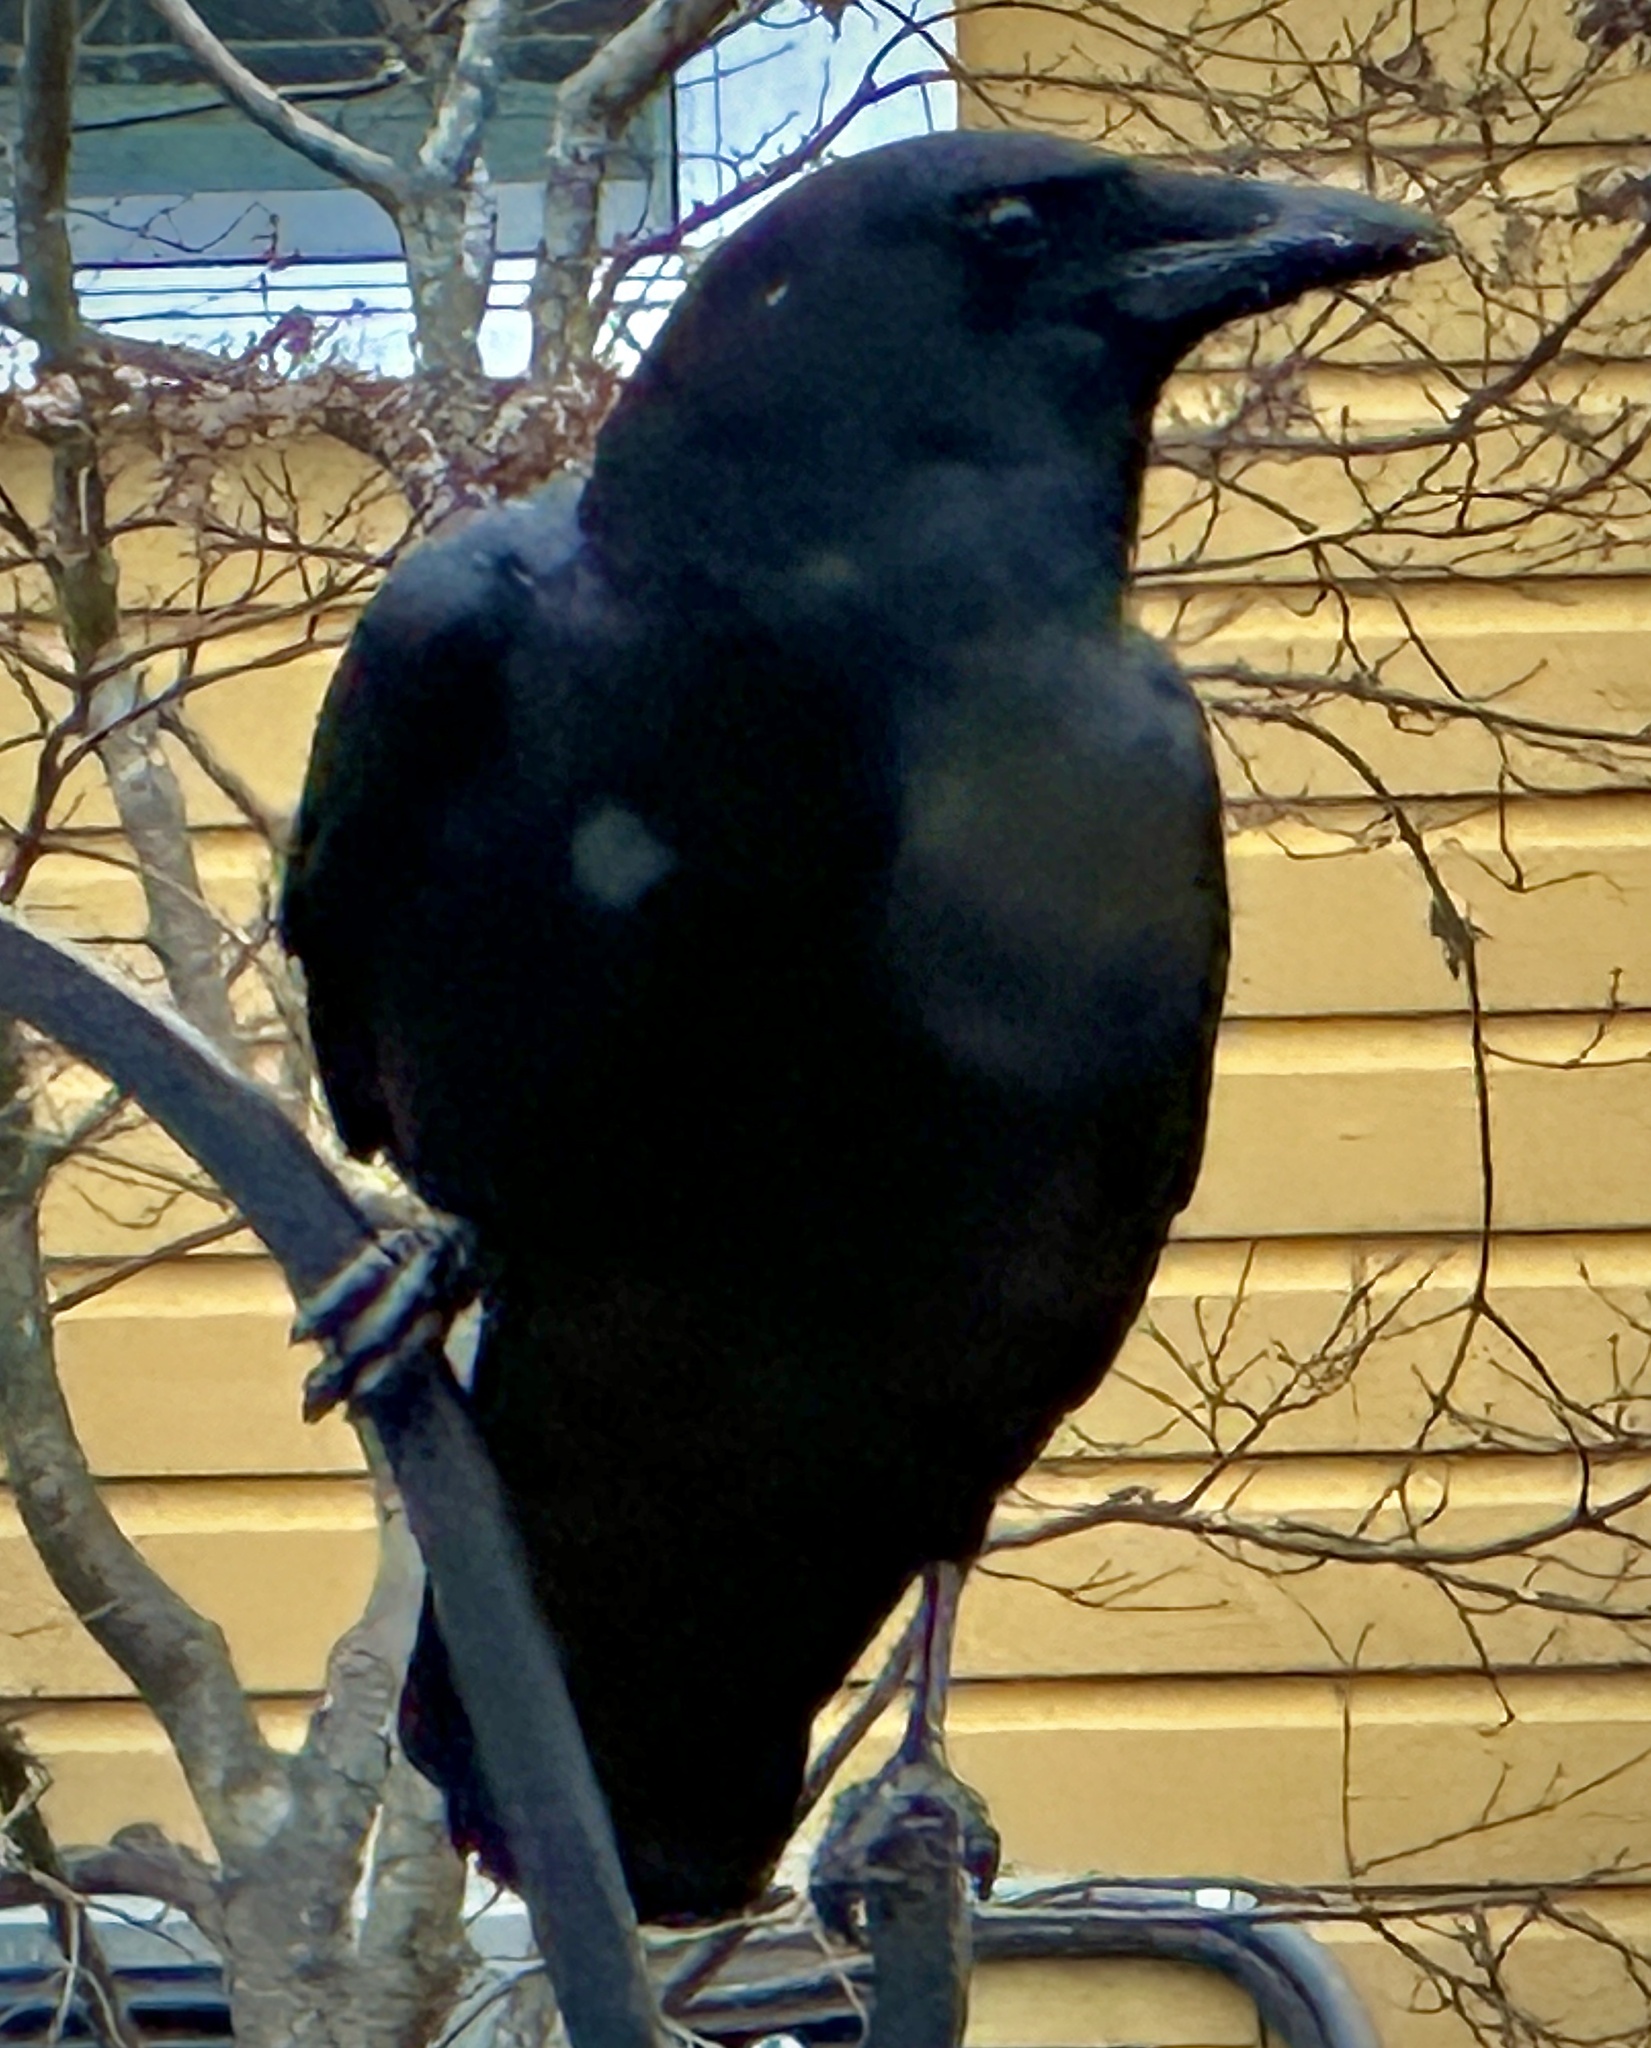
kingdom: Animalia
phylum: Chordata
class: Aves
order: Passeriformes
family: Corvidae
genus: Corvus
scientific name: Corvus brachyrhynchos
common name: American crow
